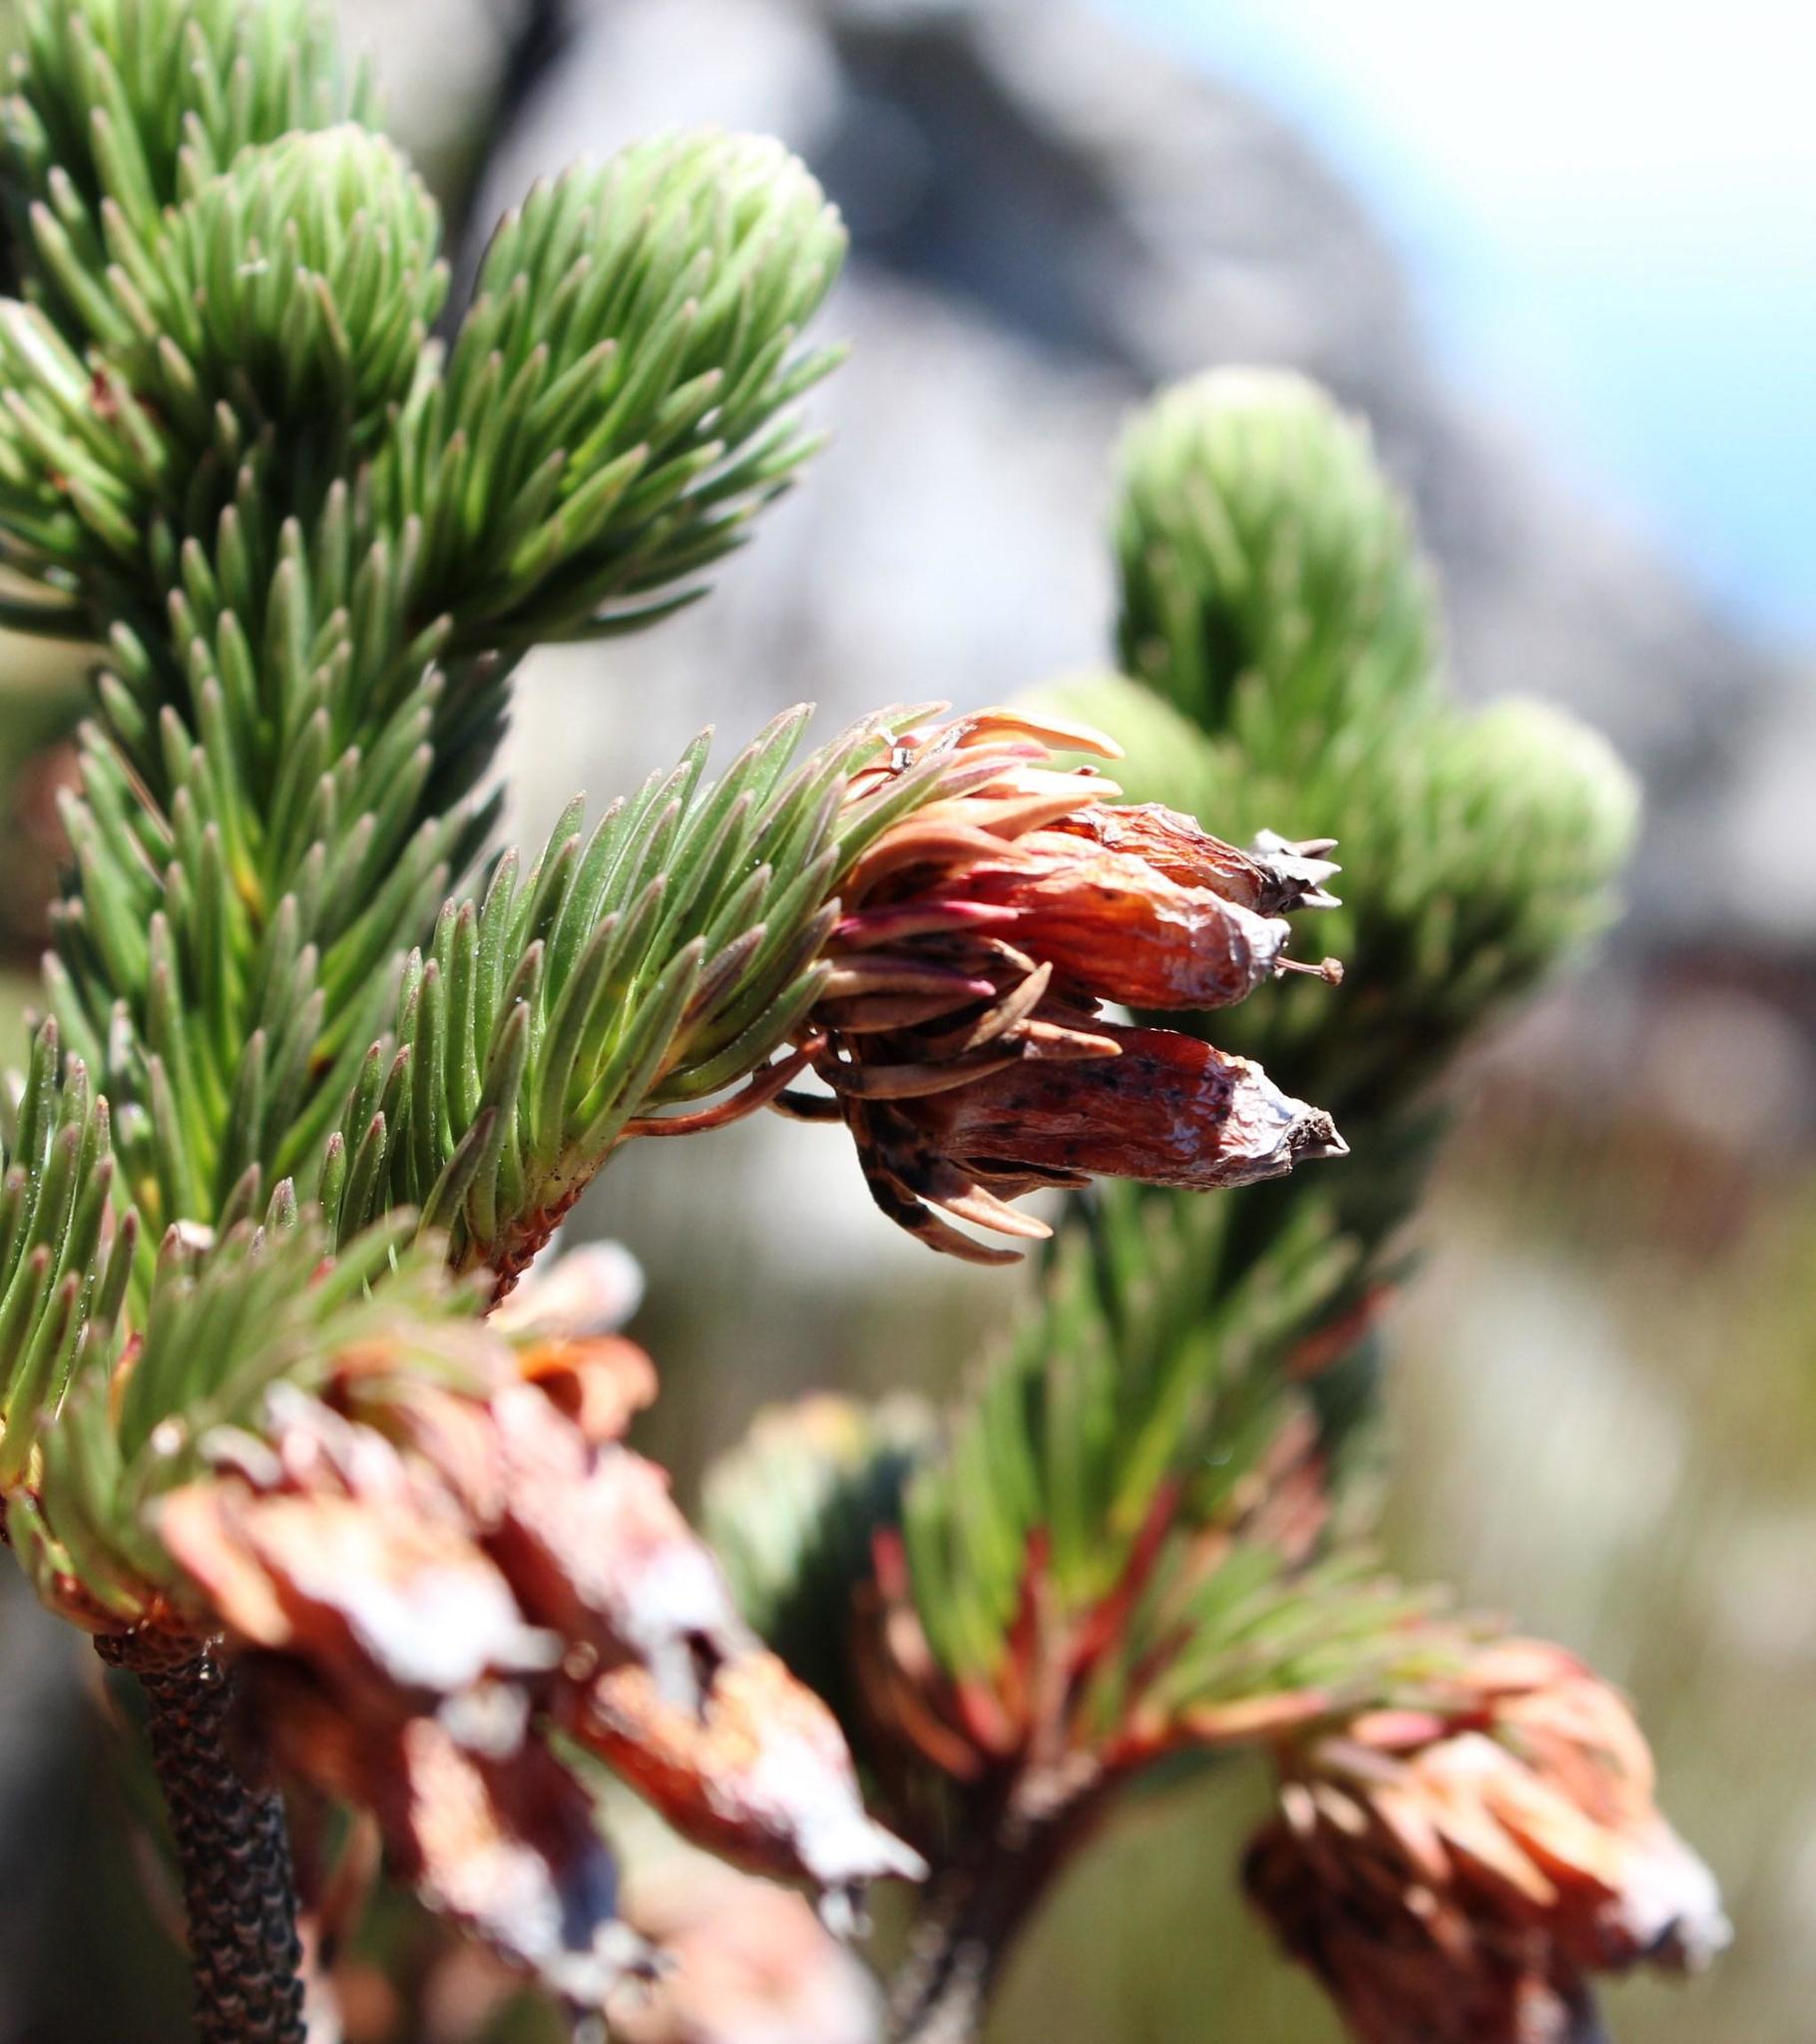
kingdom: Plantae
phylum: Tracheophyta
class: Magnoliopsida
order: Ericales
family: Ericaceae
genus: Erica
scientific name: Erica ceraria
